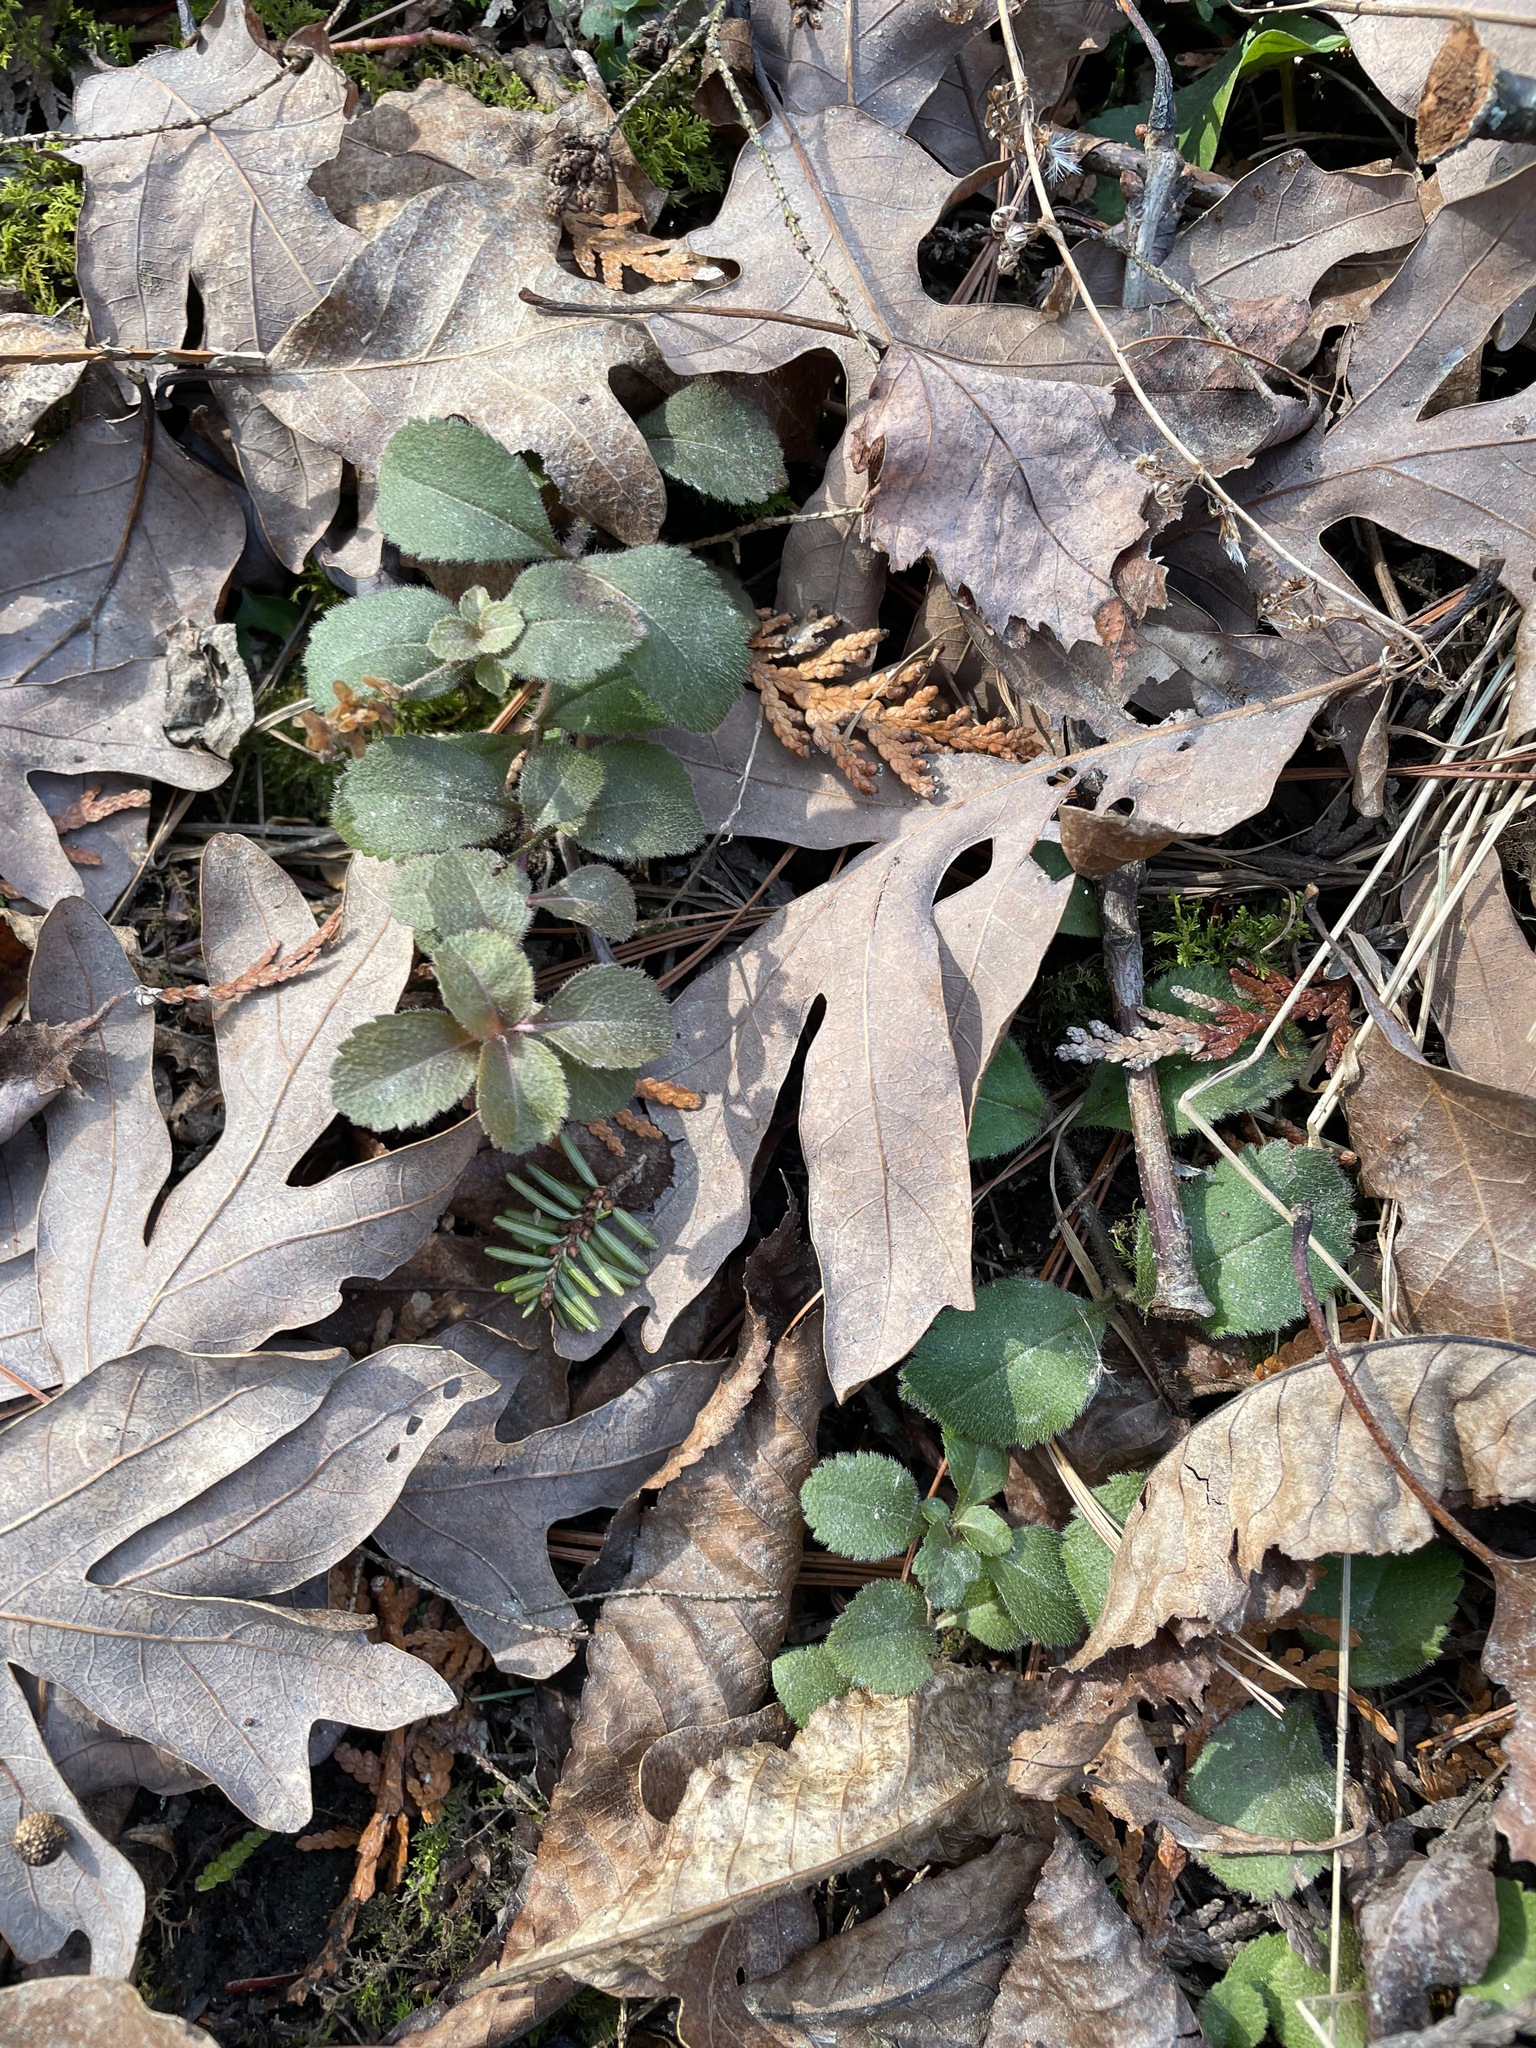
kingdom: Plantae
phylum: Tracheophyta
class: Magnoliopsida
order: Lamiales
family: Plantaginaceae
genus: Veronica
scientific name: Veronica officinalis
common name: Common speedwell
